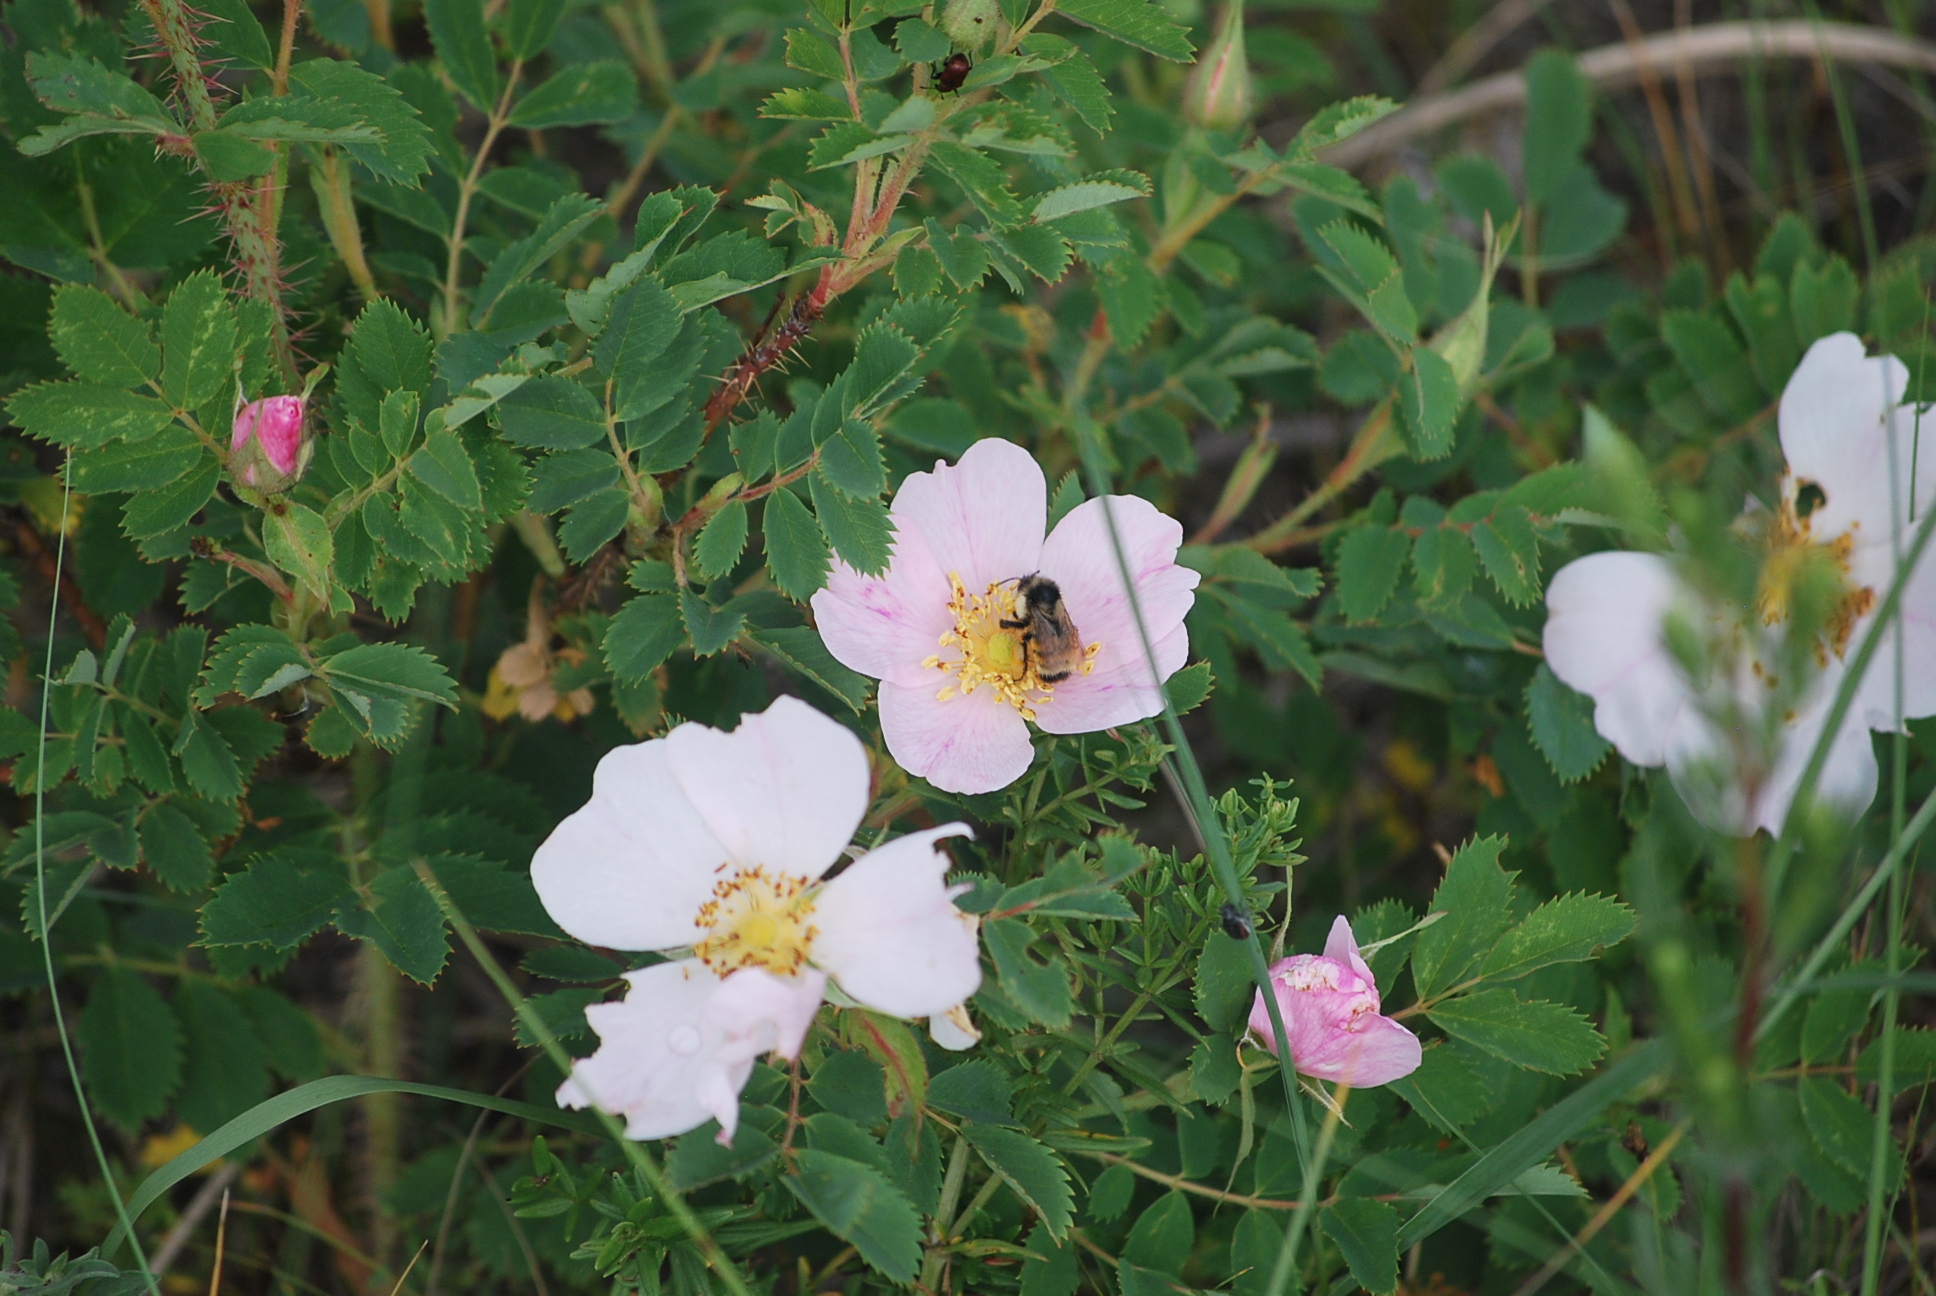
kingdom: Plantae
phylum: Tracheophyta
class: Magnoliopsida
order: Rosales
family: Rosaceae
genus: Rosa
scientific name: Rosa arkansana
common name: Prairie rose
